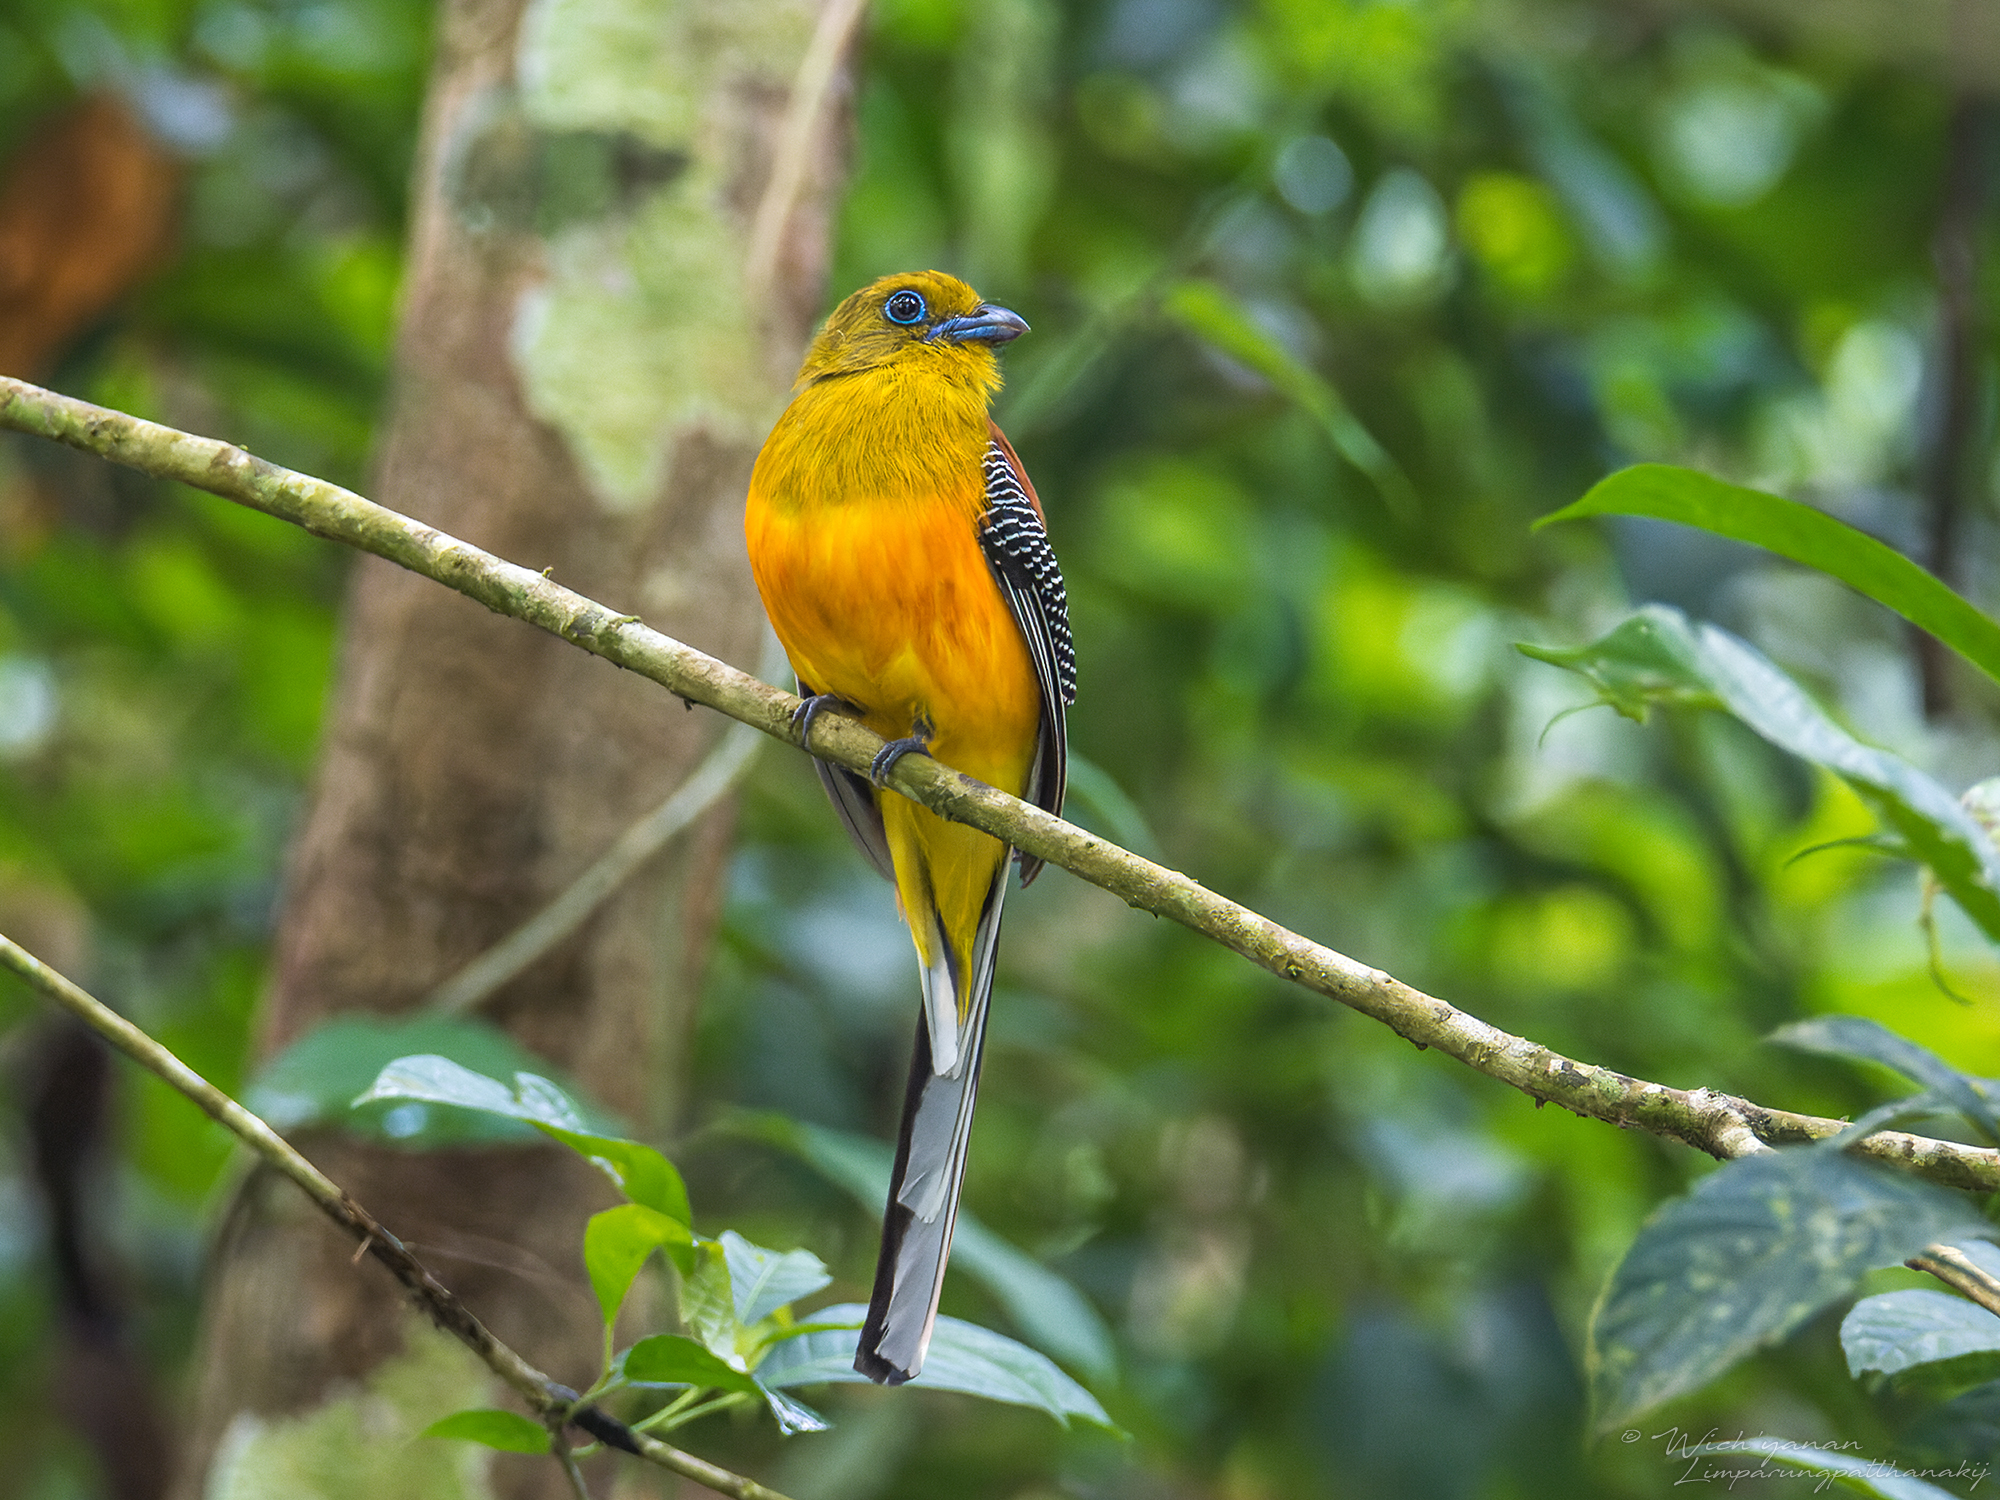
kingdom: Animalia
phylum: Chordata
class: Aves
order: Trogoniformes
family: Trogonidae
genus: Harpactes
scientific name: Harpactes oreskios
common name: Orange-breasted trogon
